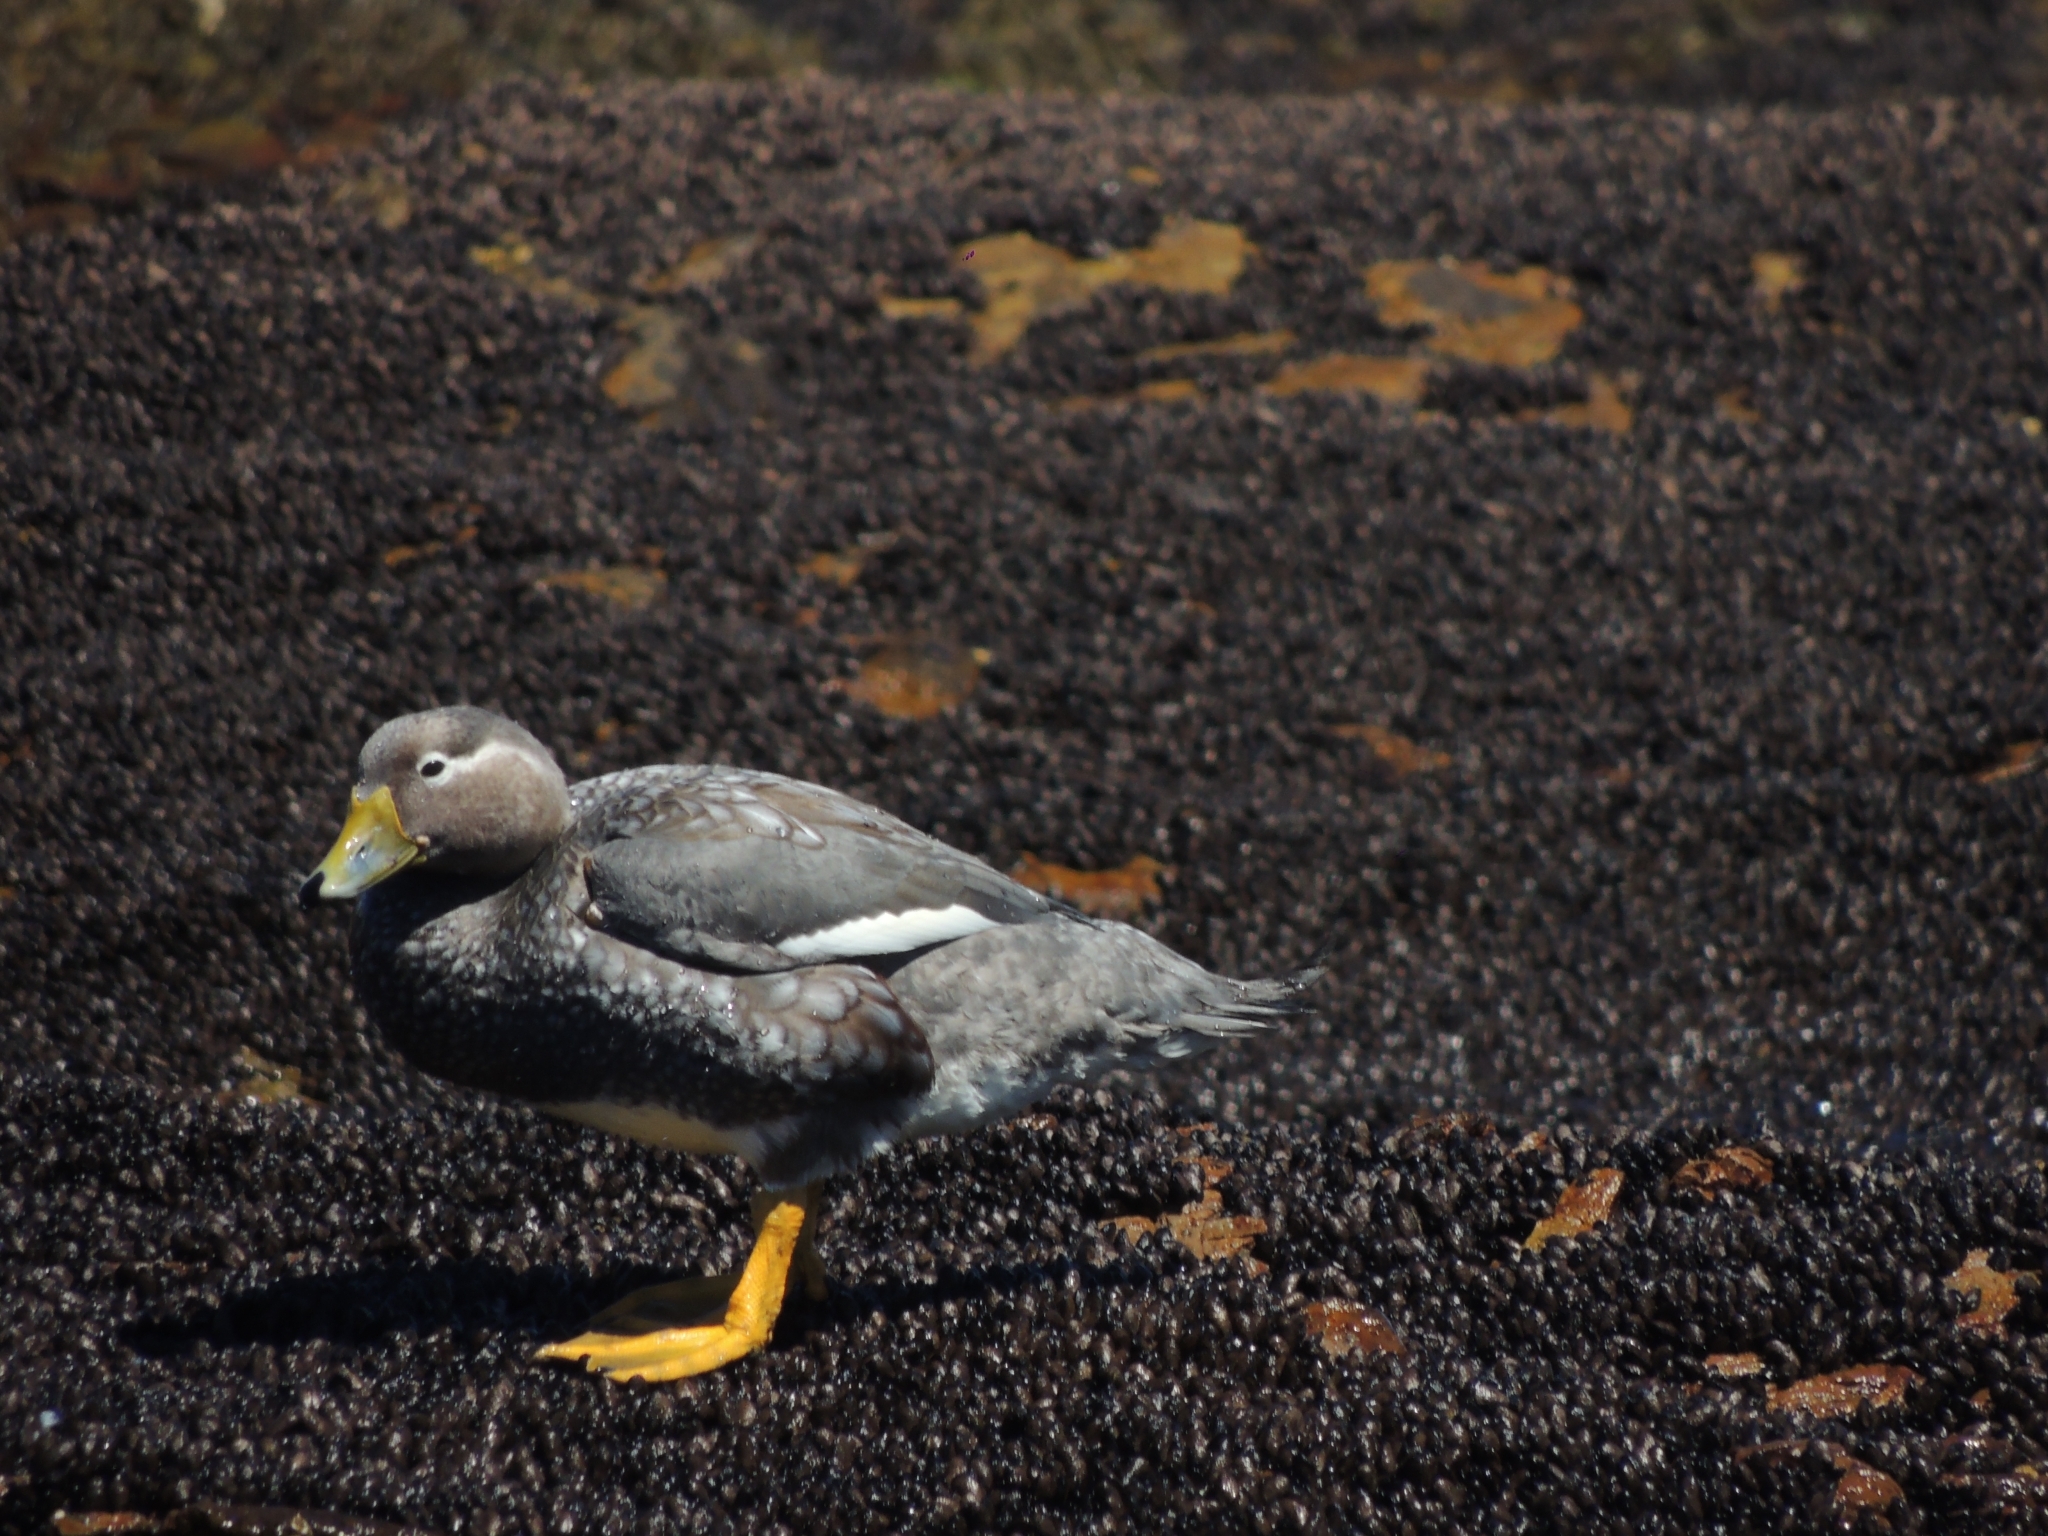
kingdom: Animalia
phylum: Chordata
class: Aves
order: Anseriformes
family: Anatidae
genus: Tachyeres
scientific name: Tachyeres patachonicus
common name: Flying steamer duck
